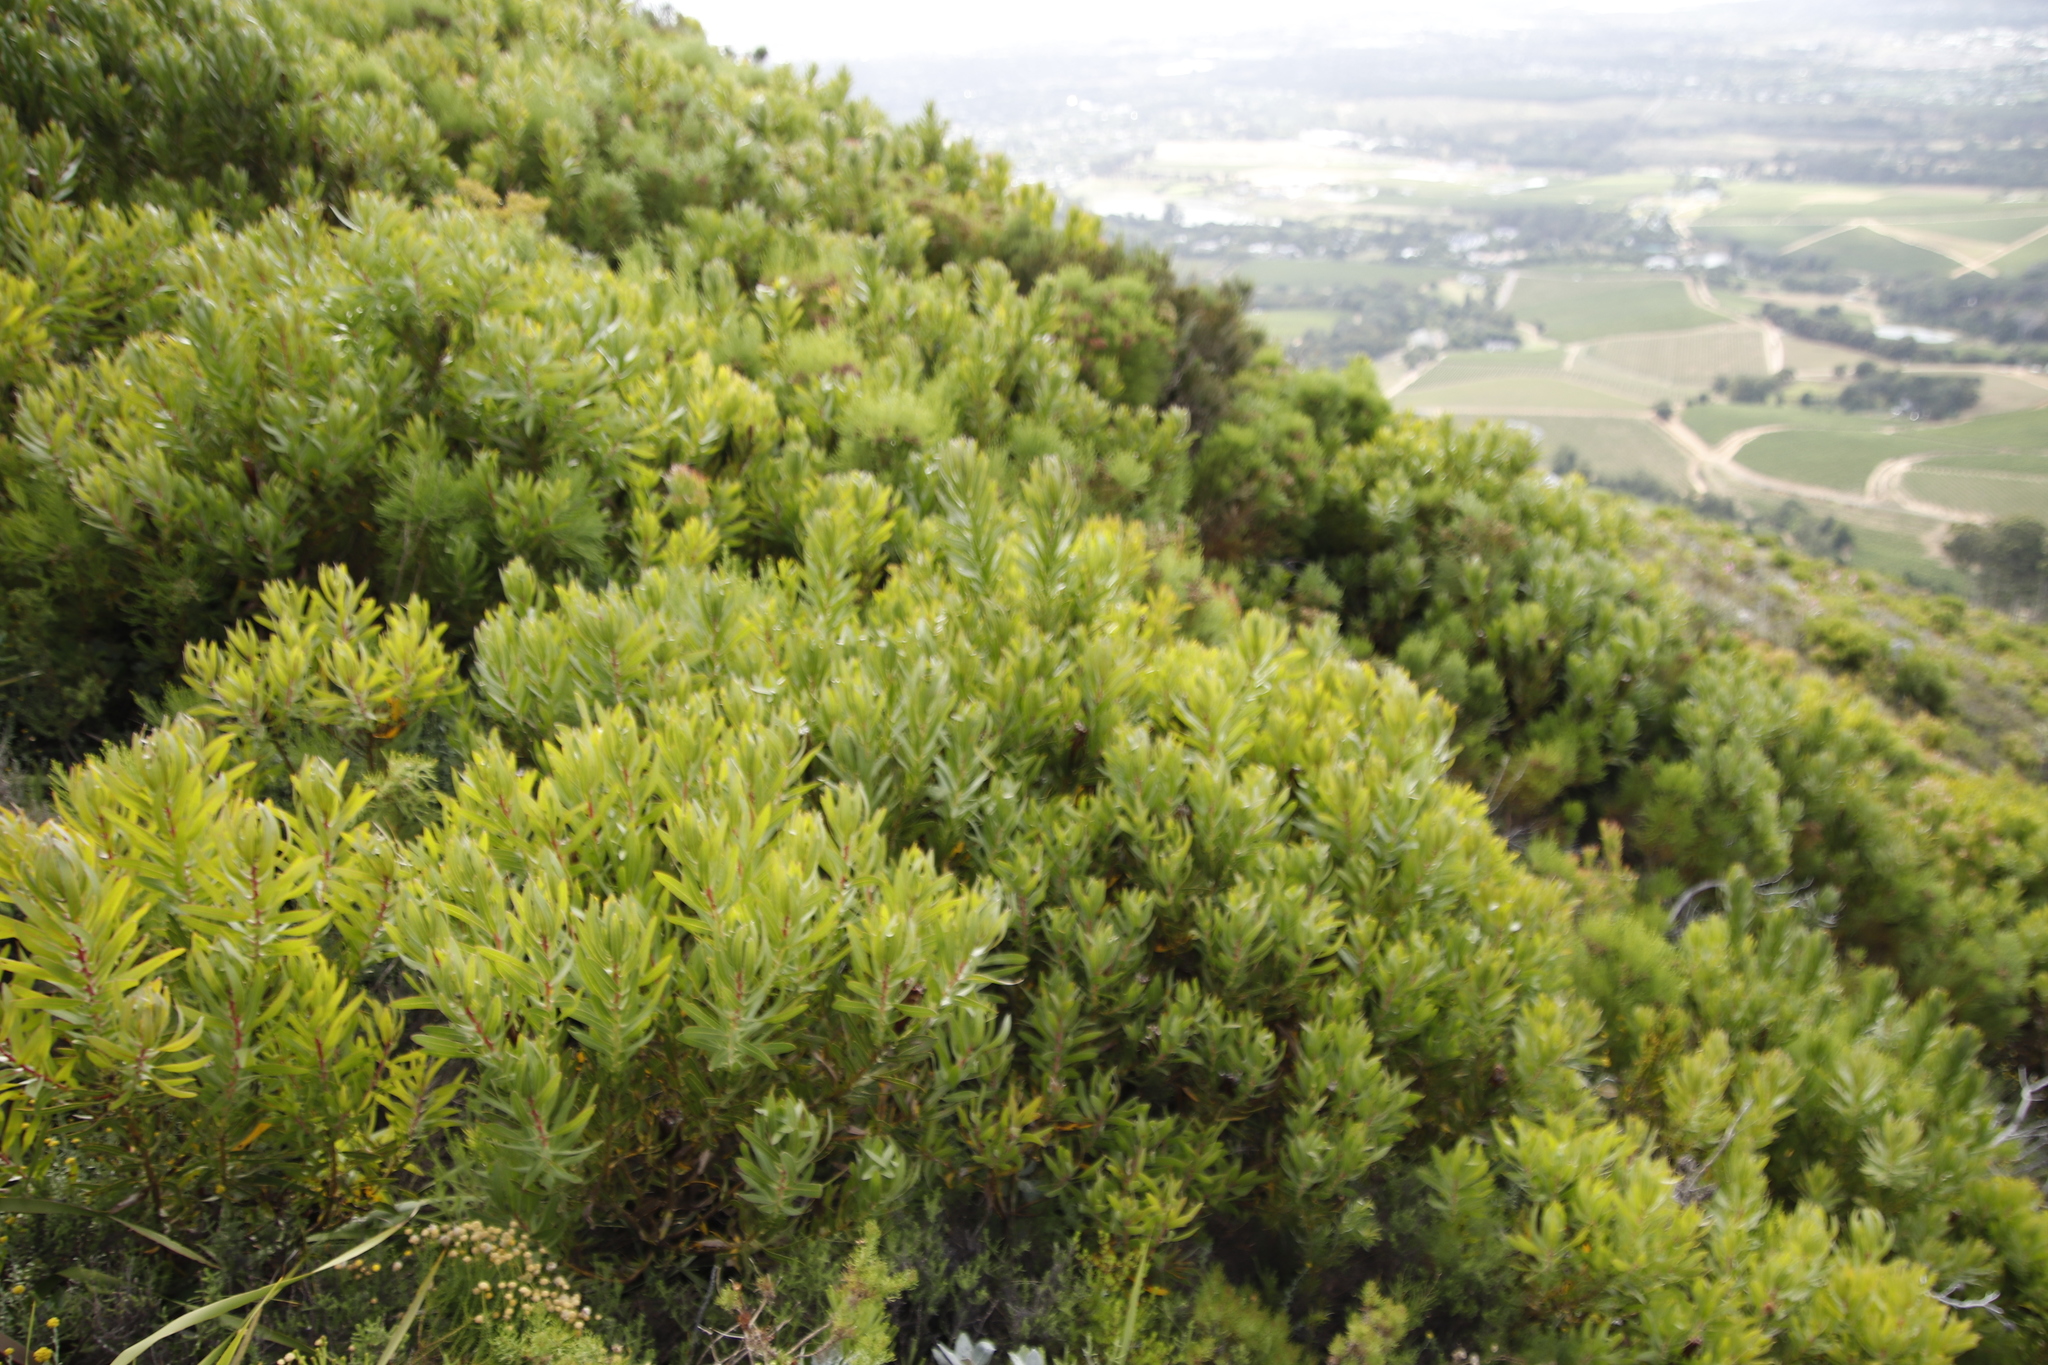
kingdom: Plantae
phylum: Tracheophyta
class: Magnoliopsida
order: Proteales
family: Proteaceae
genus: Protea
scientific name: Protea lepidocarpodendron
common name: Black-bearded protea
